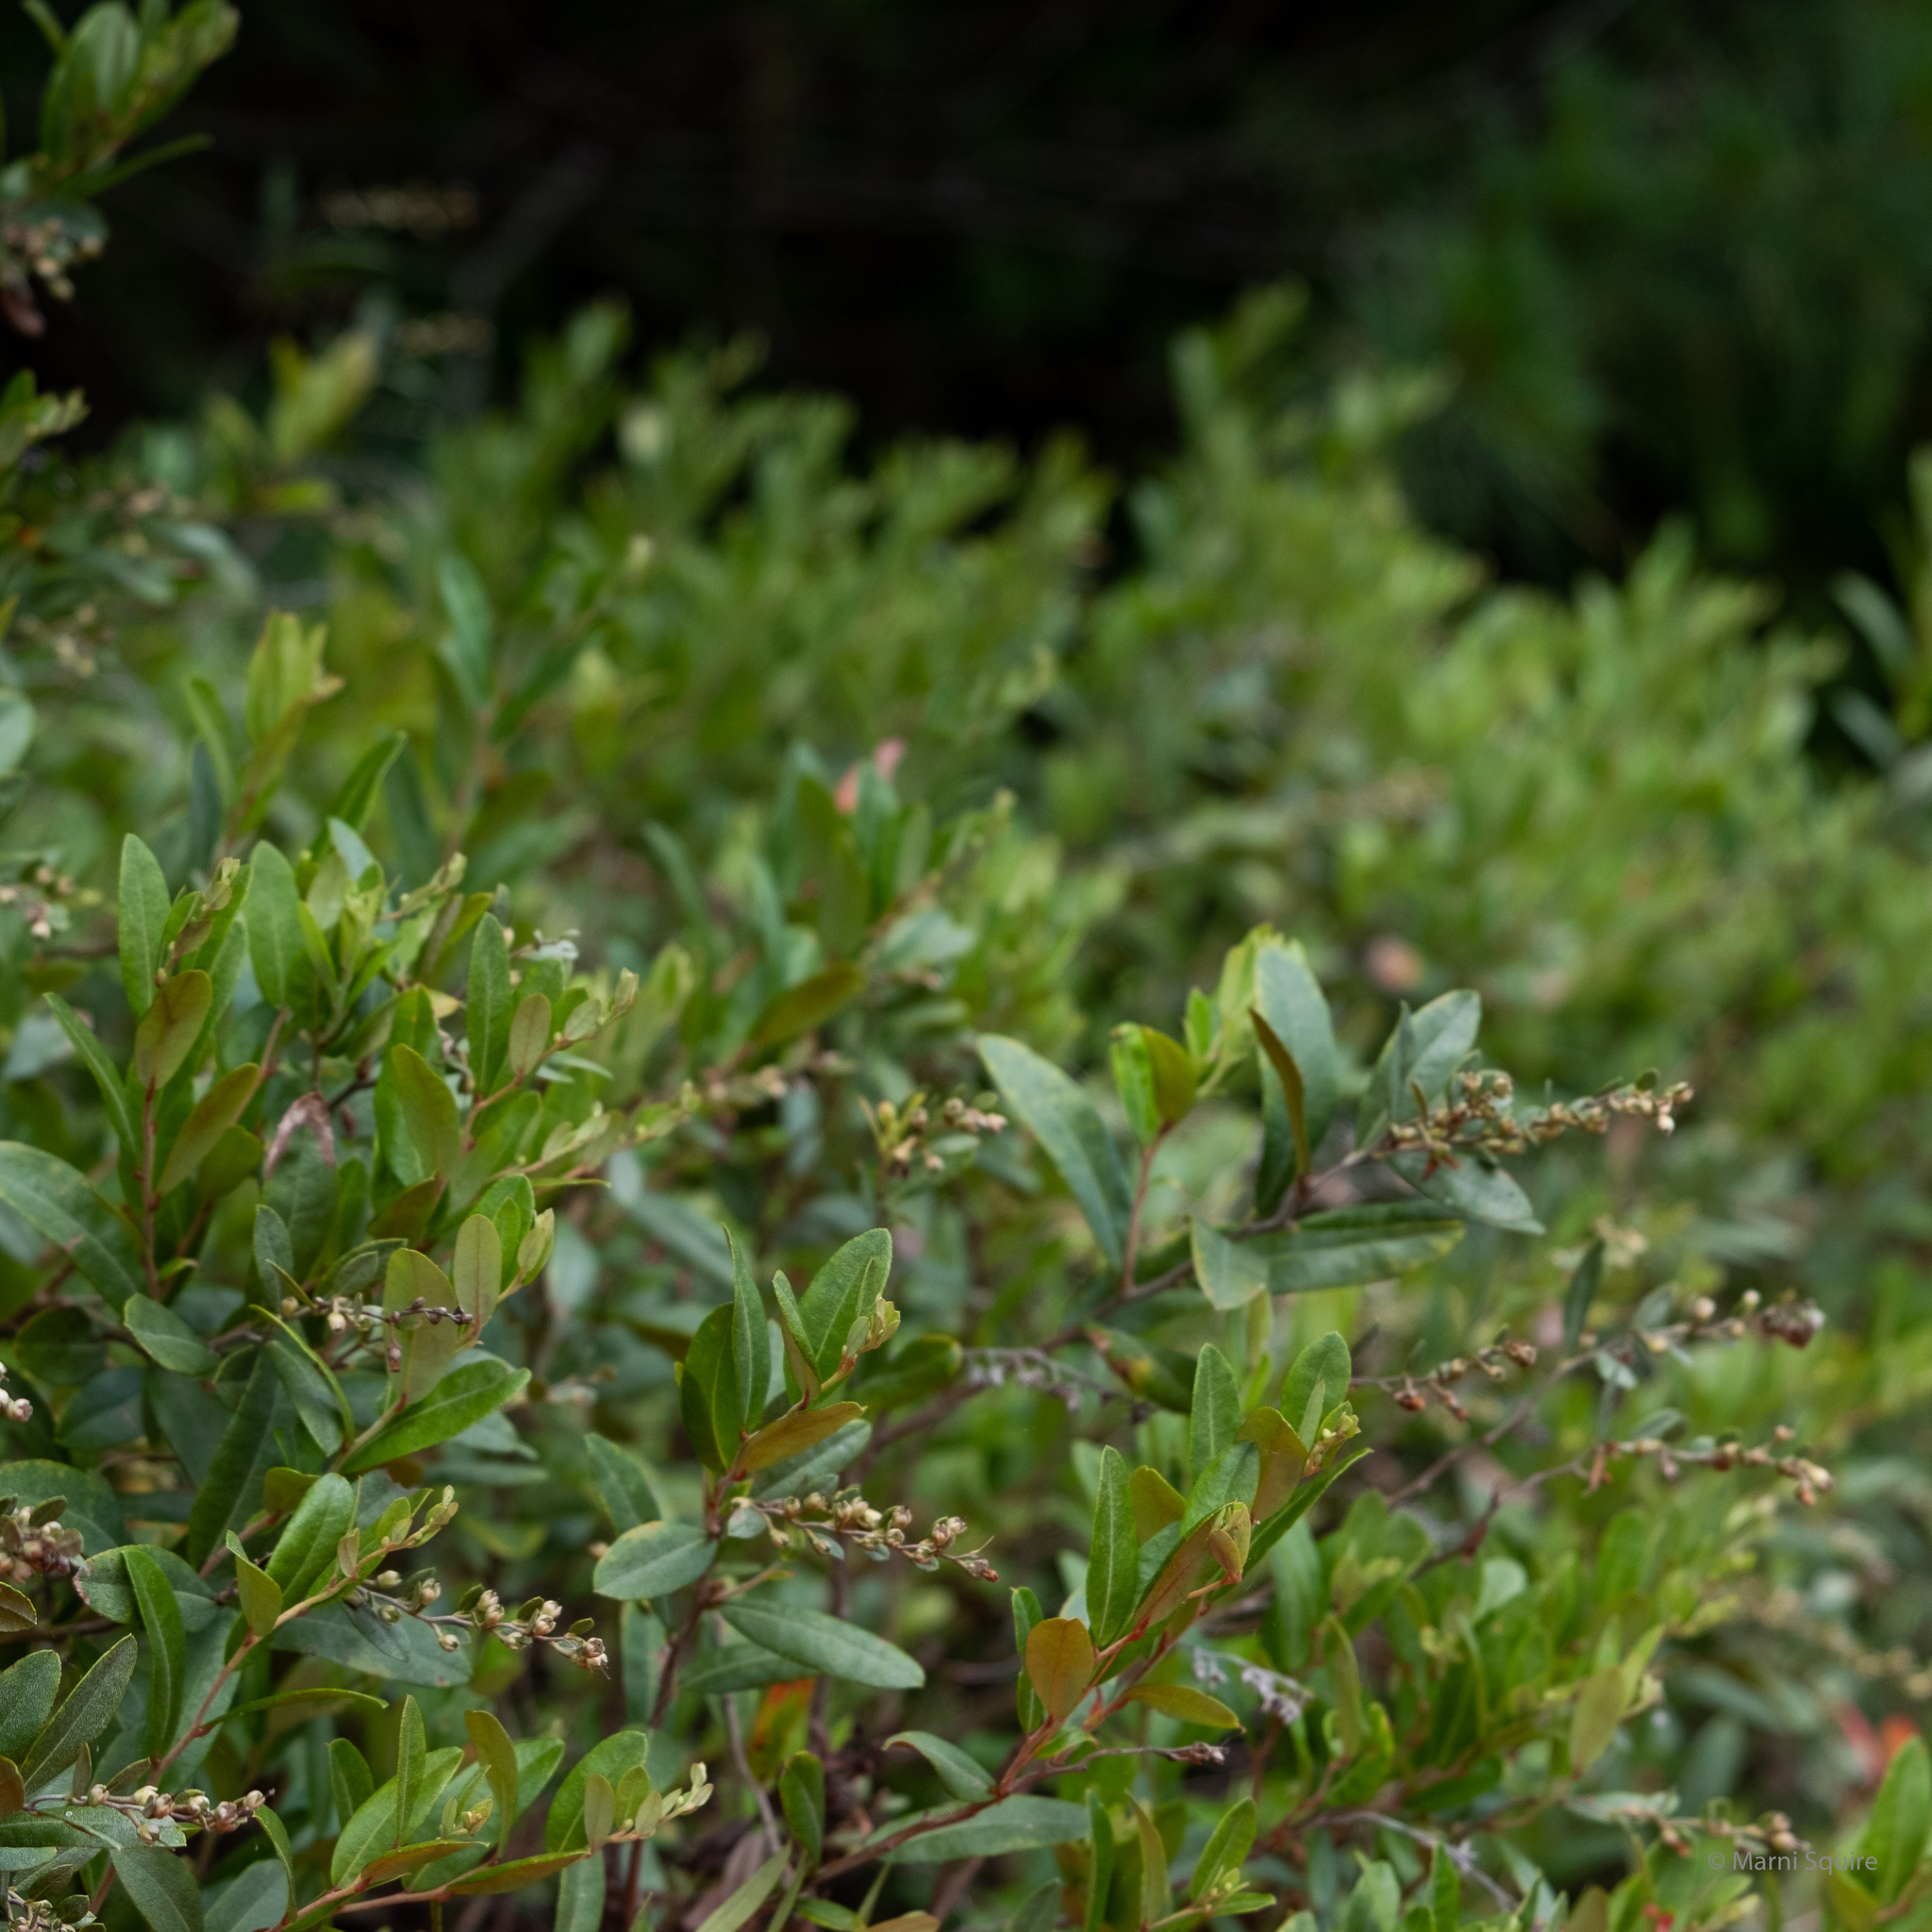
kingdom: Plantae
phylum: Tracheophyta
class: Magnoliopsida
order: Ericales
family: Ericaceae
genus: Chamaedaphne
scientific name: Chamaedaphne calyculata
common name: Leatherleaf
